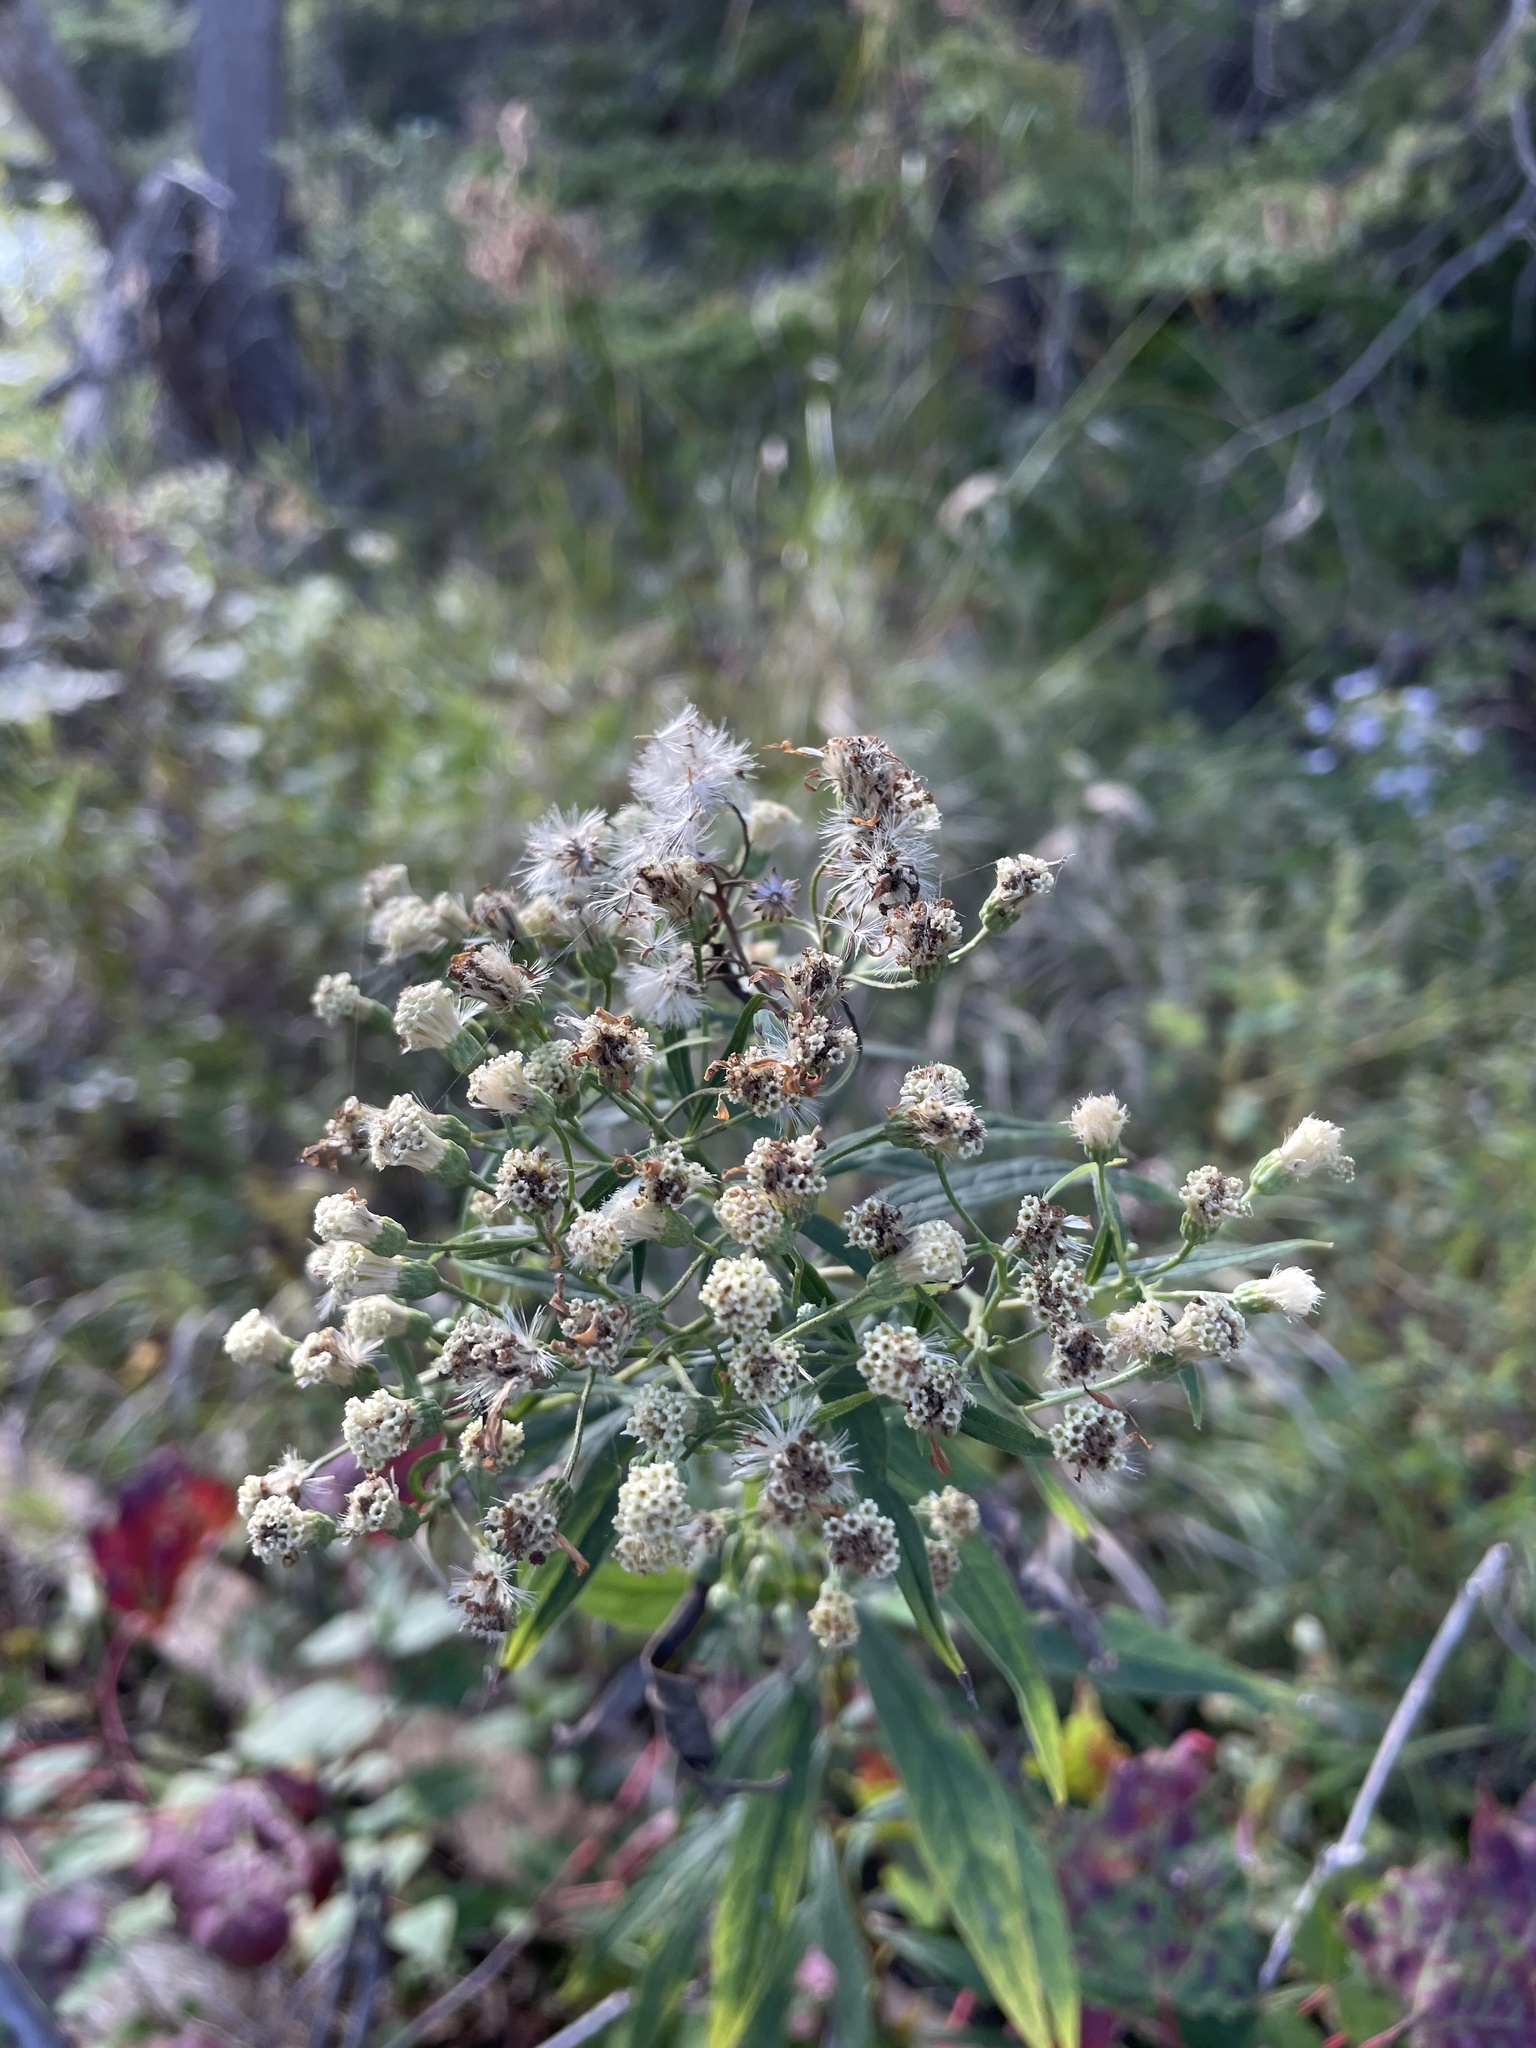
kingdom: Plantae
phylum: Tracheophyta
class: Magnoliopsida
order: Asterales
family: Asteraceae
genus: Doellingeria
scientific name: Doellingeria umbellata
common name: Flat-top white aster
